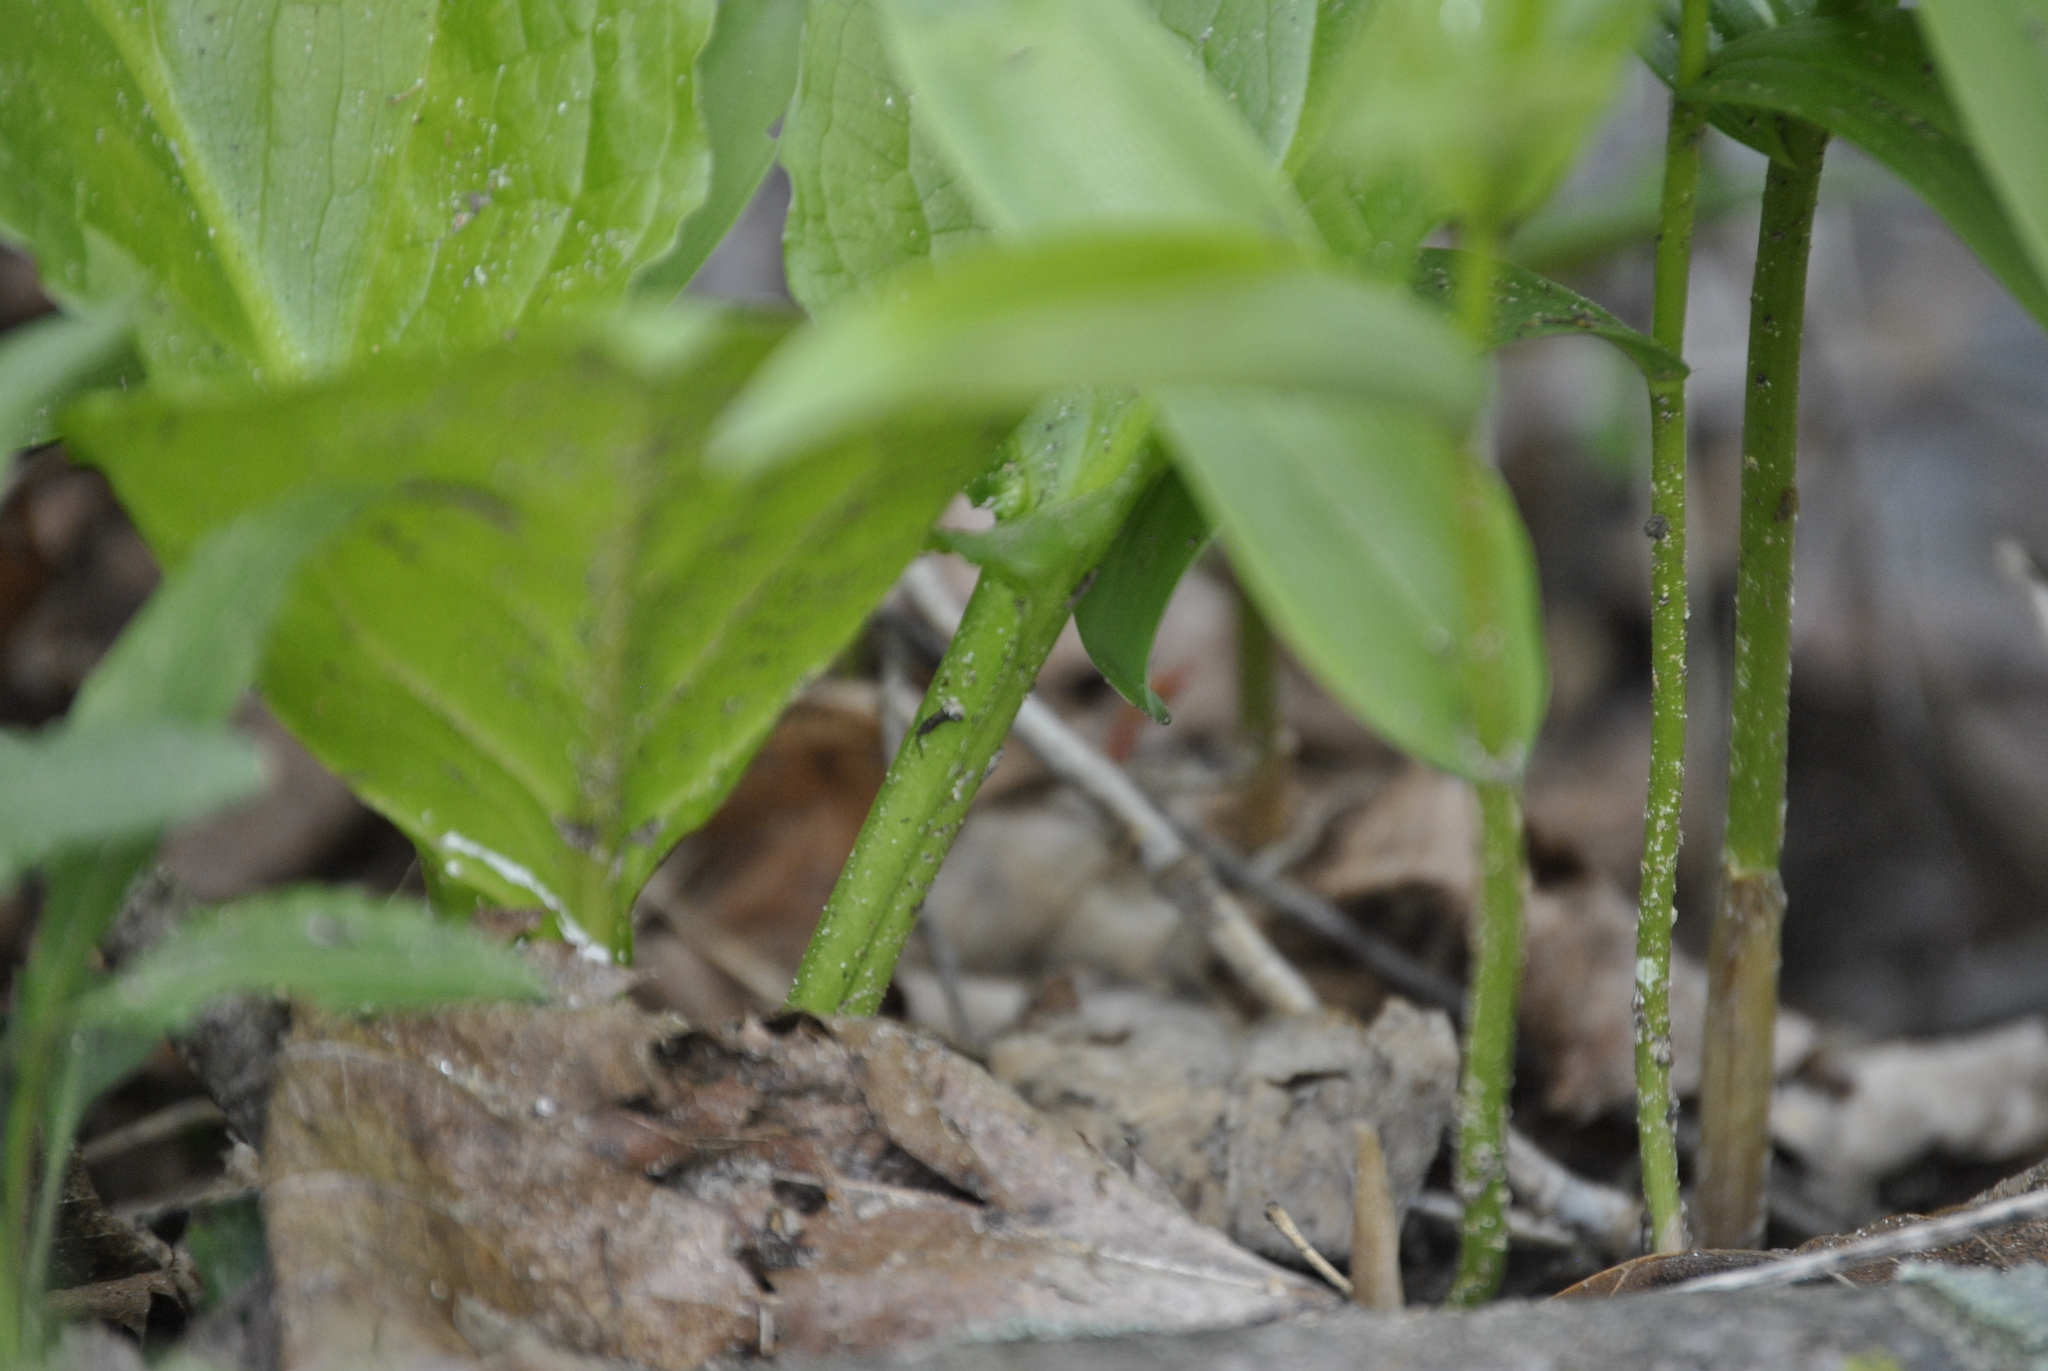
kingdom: Plantae
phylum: Tracheophyta
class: Liliopsida
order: Alismatales
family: Araceae
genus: Symplocarpus
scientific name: Symplocarpus foetidus
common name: Eastern skunk cabbage
